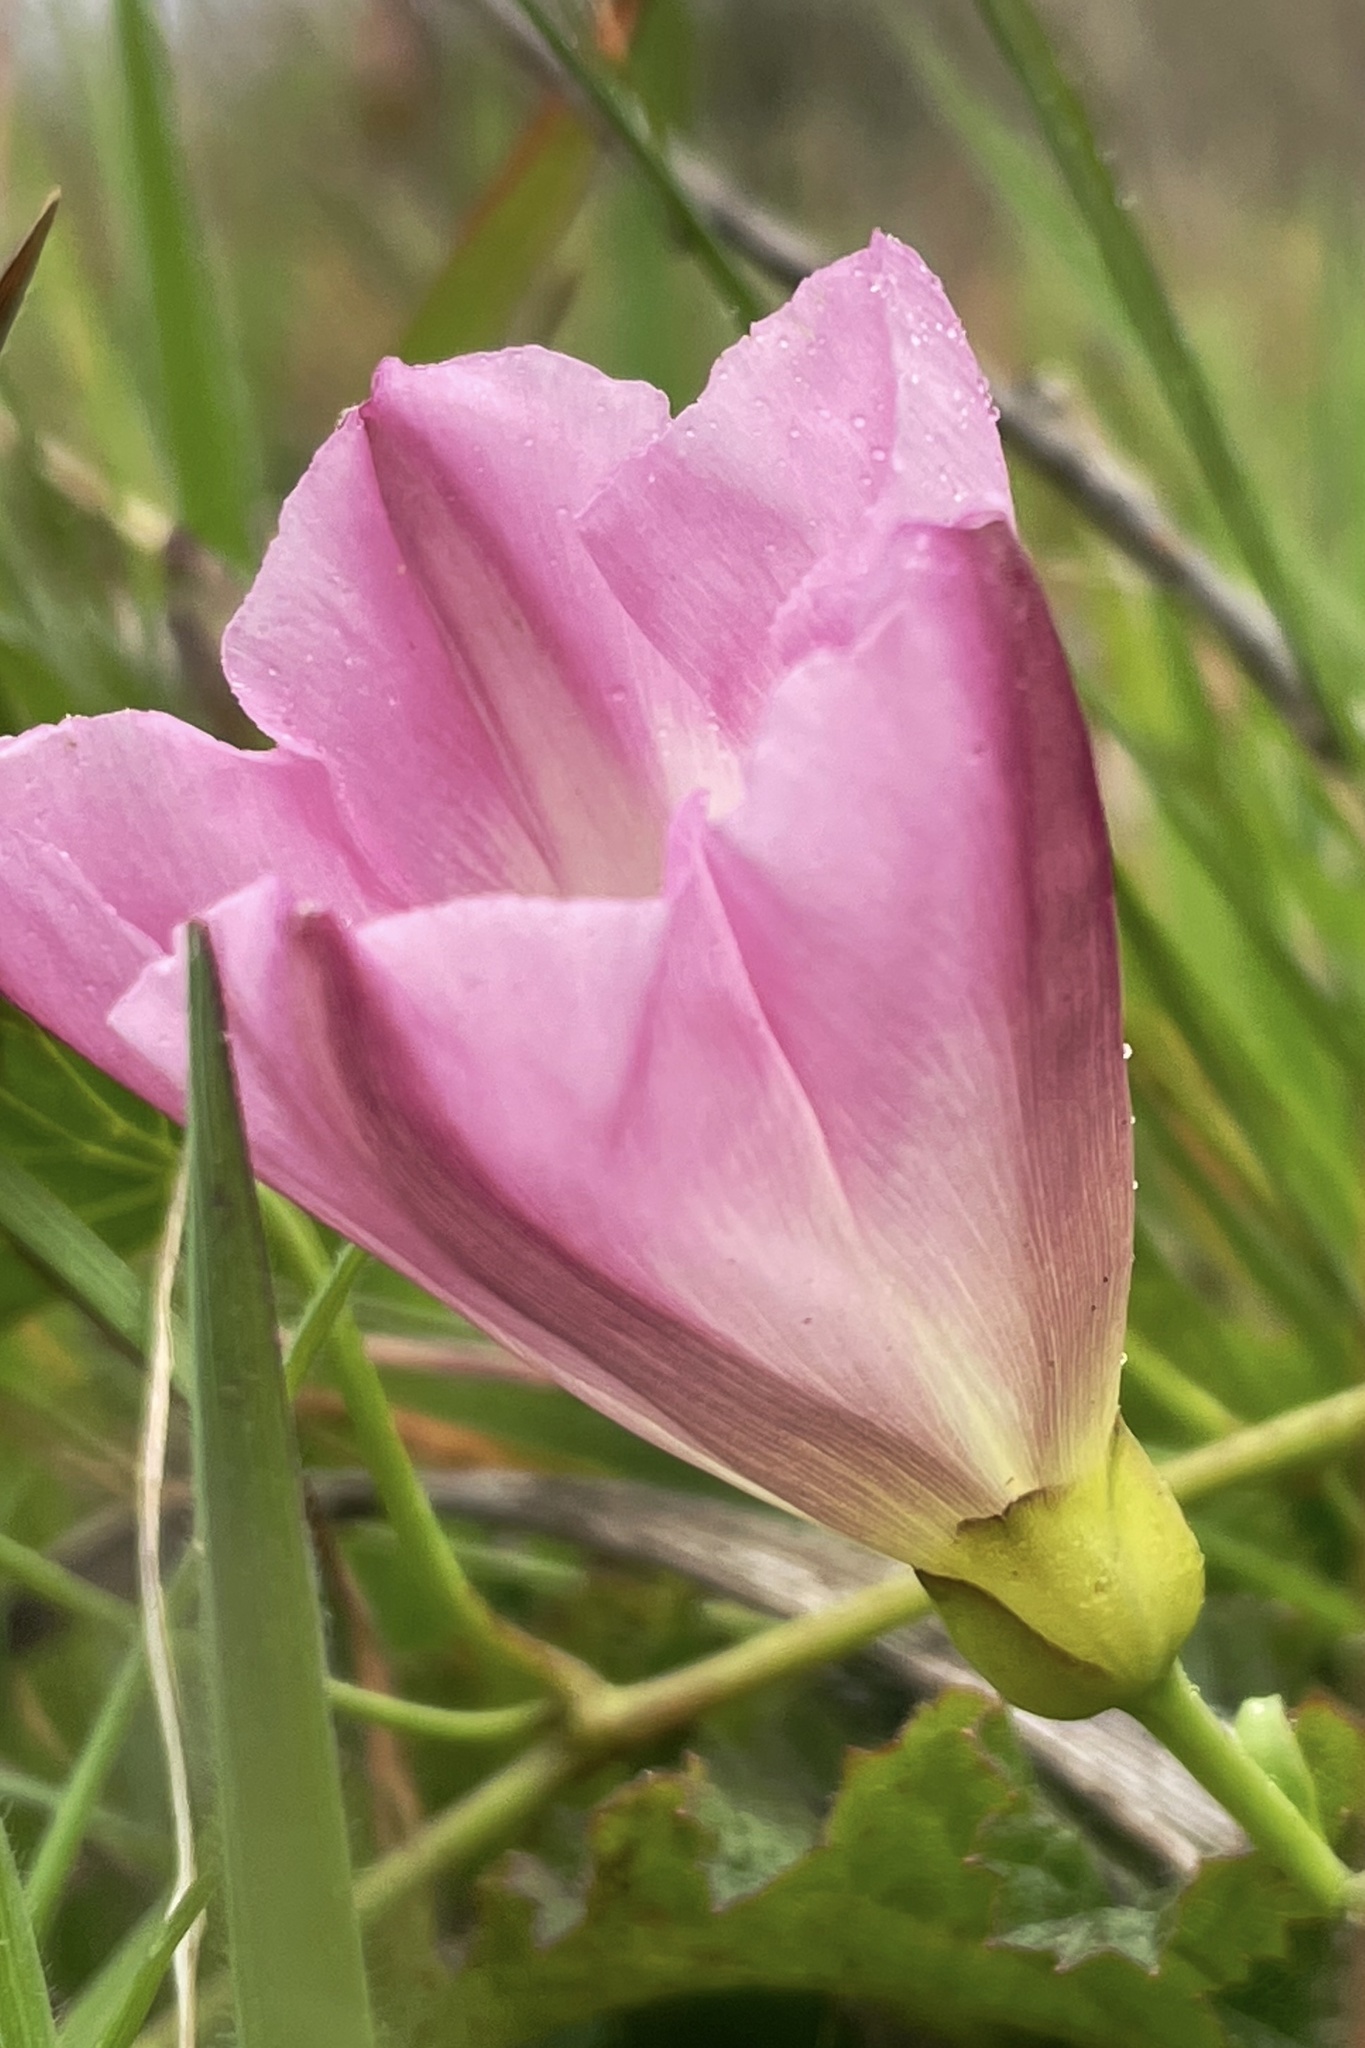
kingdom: Plantae
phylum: Tracheophyta
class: Magnoliopsida
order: Solanales
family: Convolvulaceae
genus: Calystegia
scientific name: Calystegia purpurata
